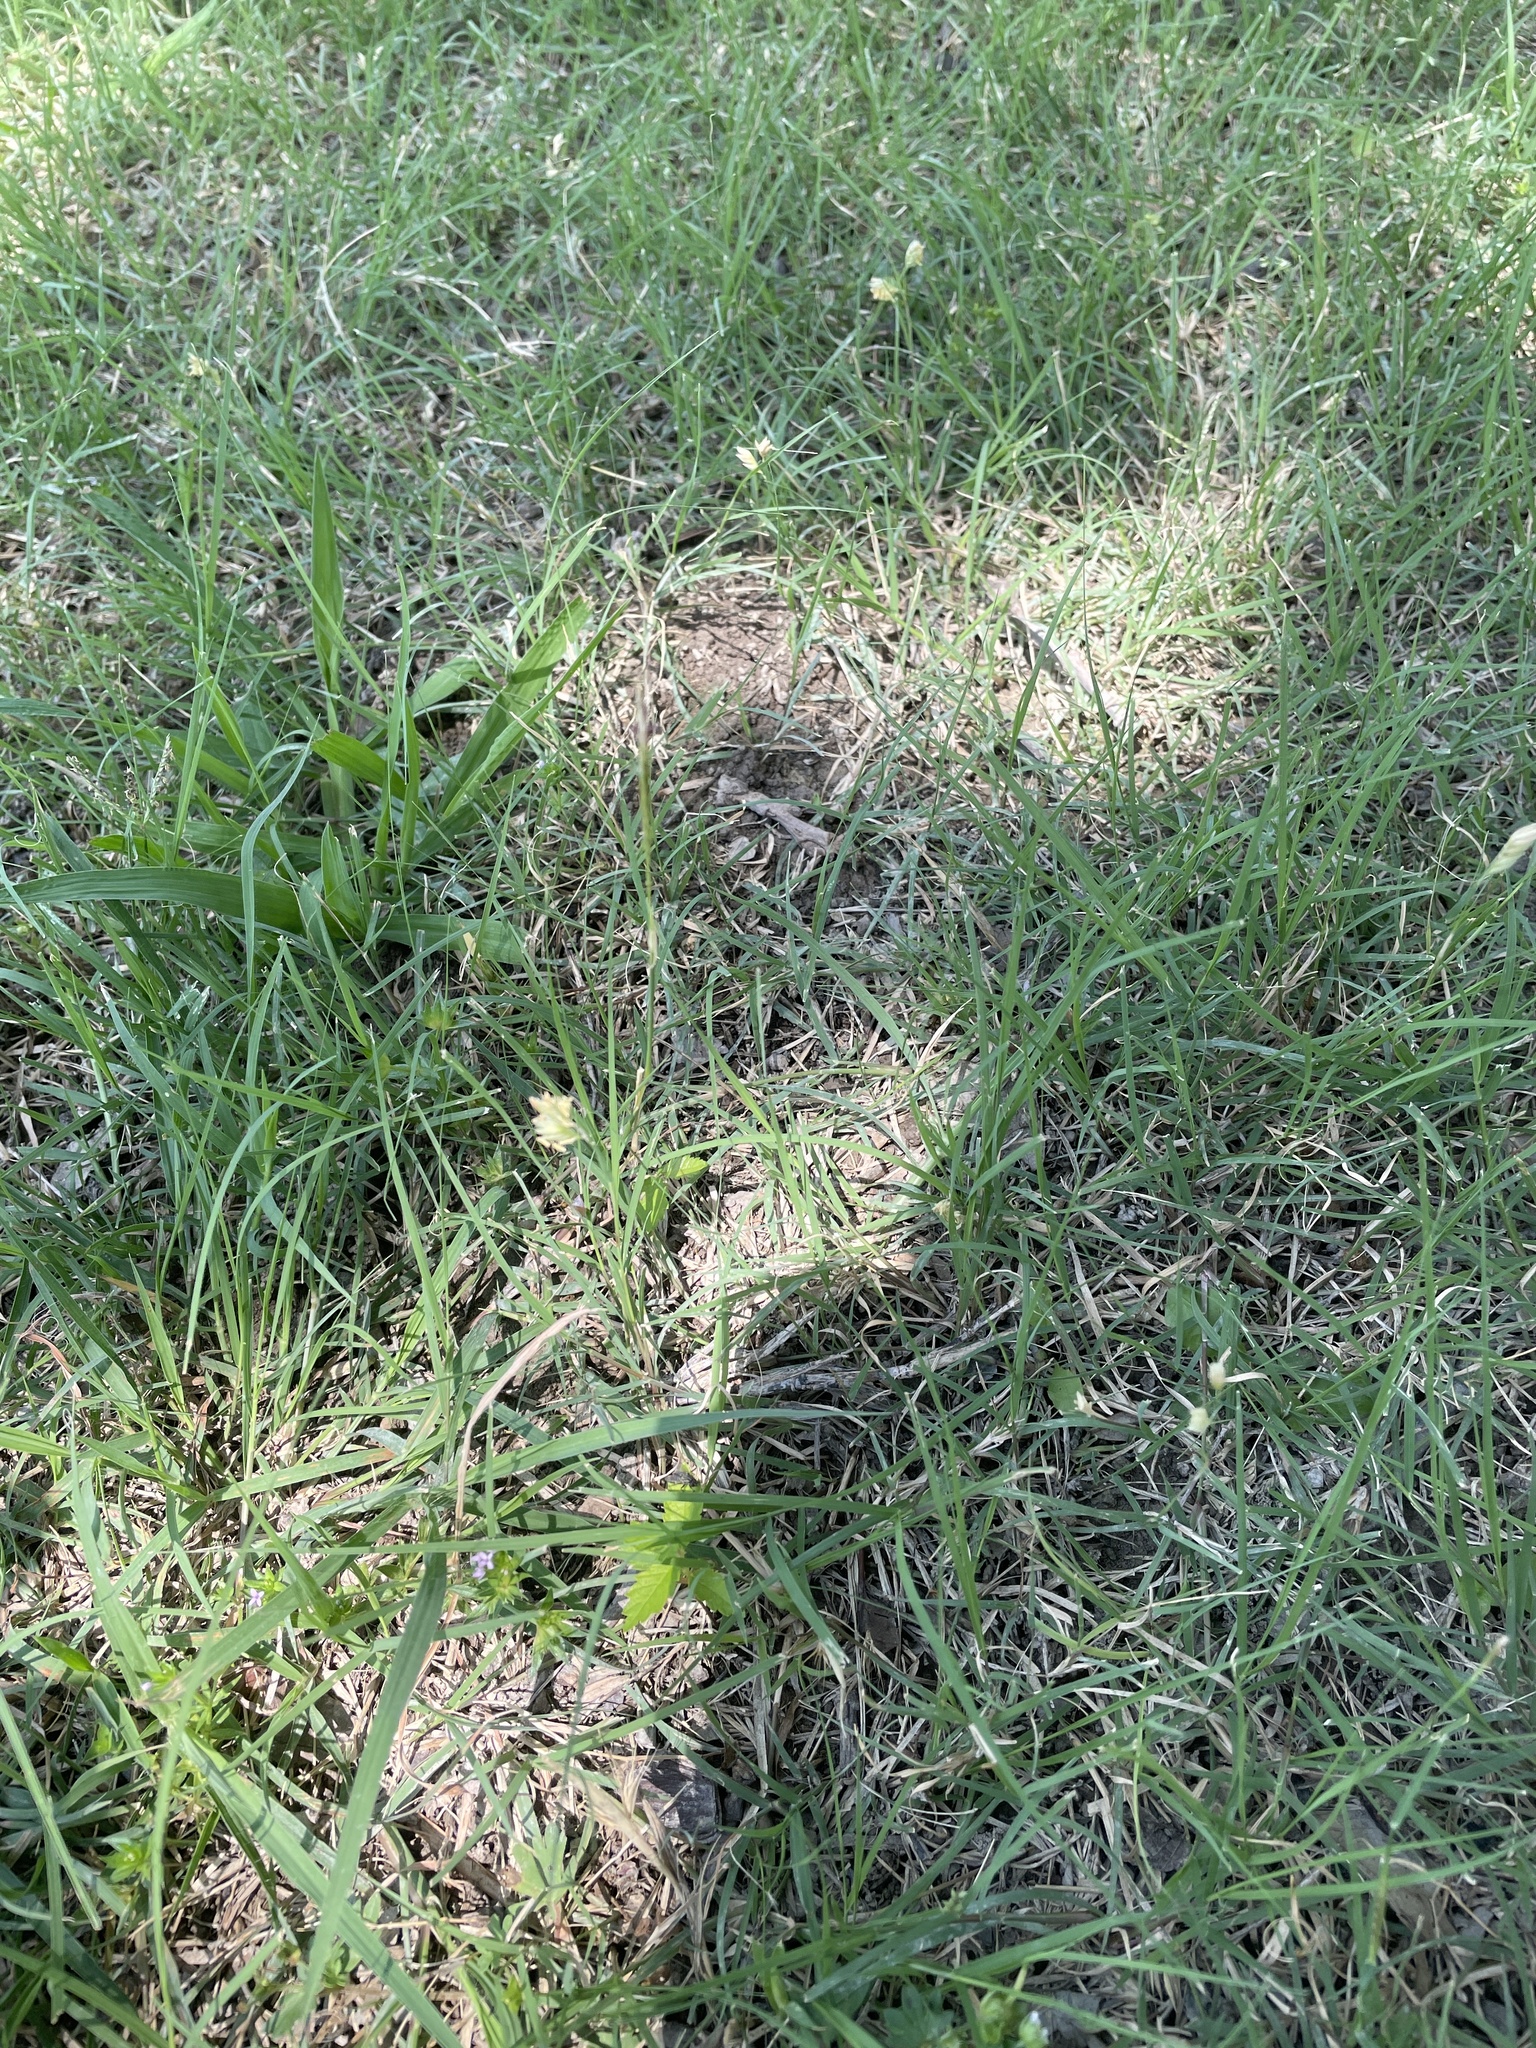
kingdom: Plantae
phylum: Tracheophyta
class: Liliopsida
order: Poales
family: Poaceae
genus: Bouteloua
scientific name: Bouteloua dactyloides
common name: Buffalo grass
